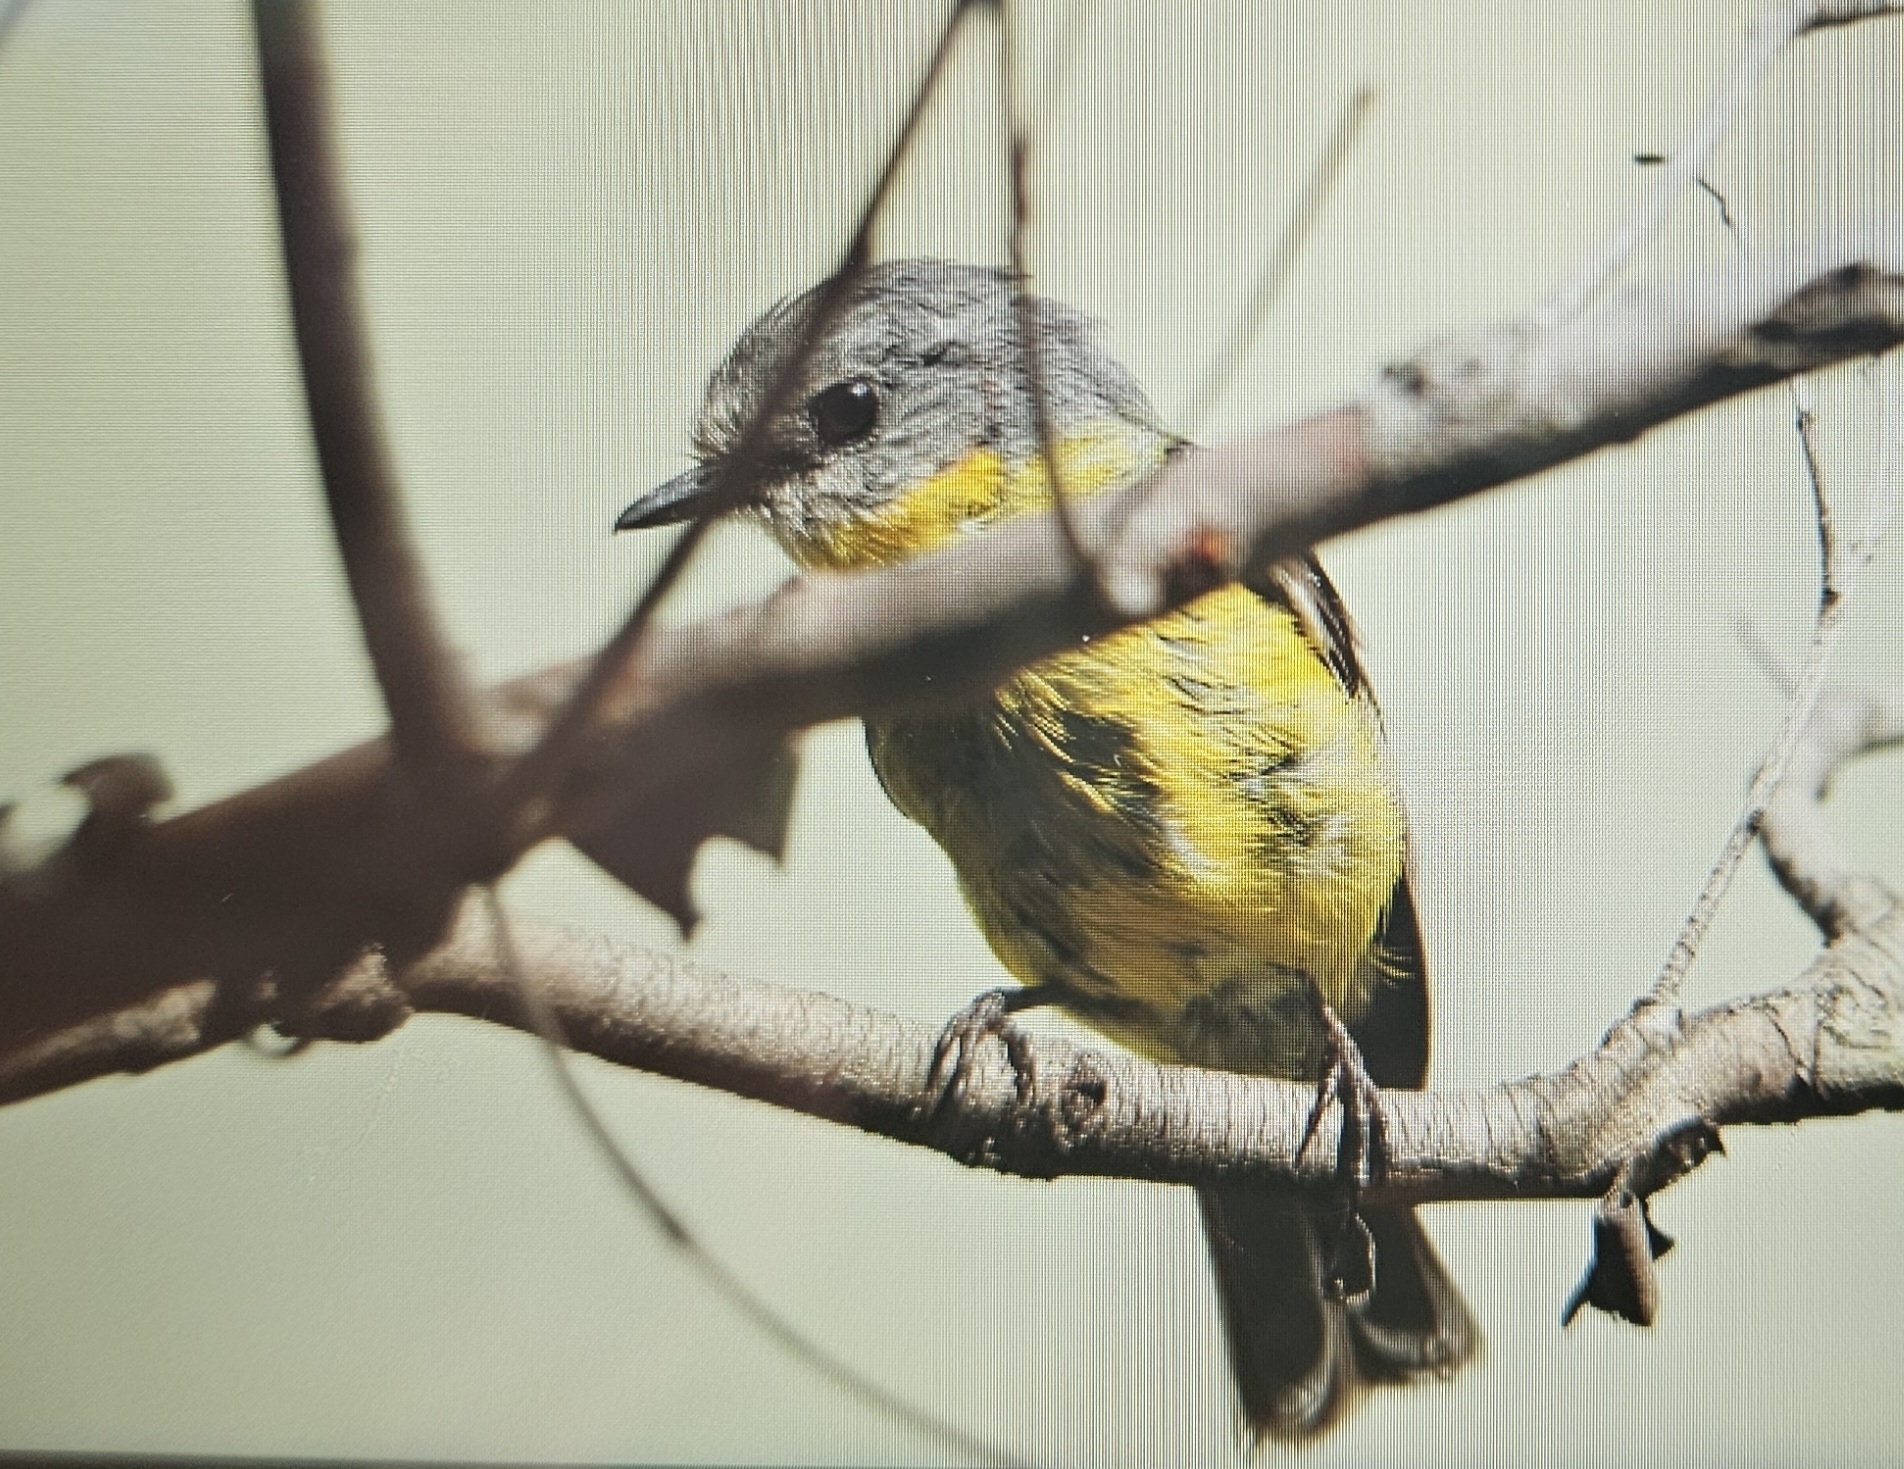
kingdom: Animalia
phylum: Chordata
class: Aves
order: Passeriformes
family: Petroicidae
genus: Eopsaltria
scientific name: Eopsaltria australis
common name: Eastern yellow robin
